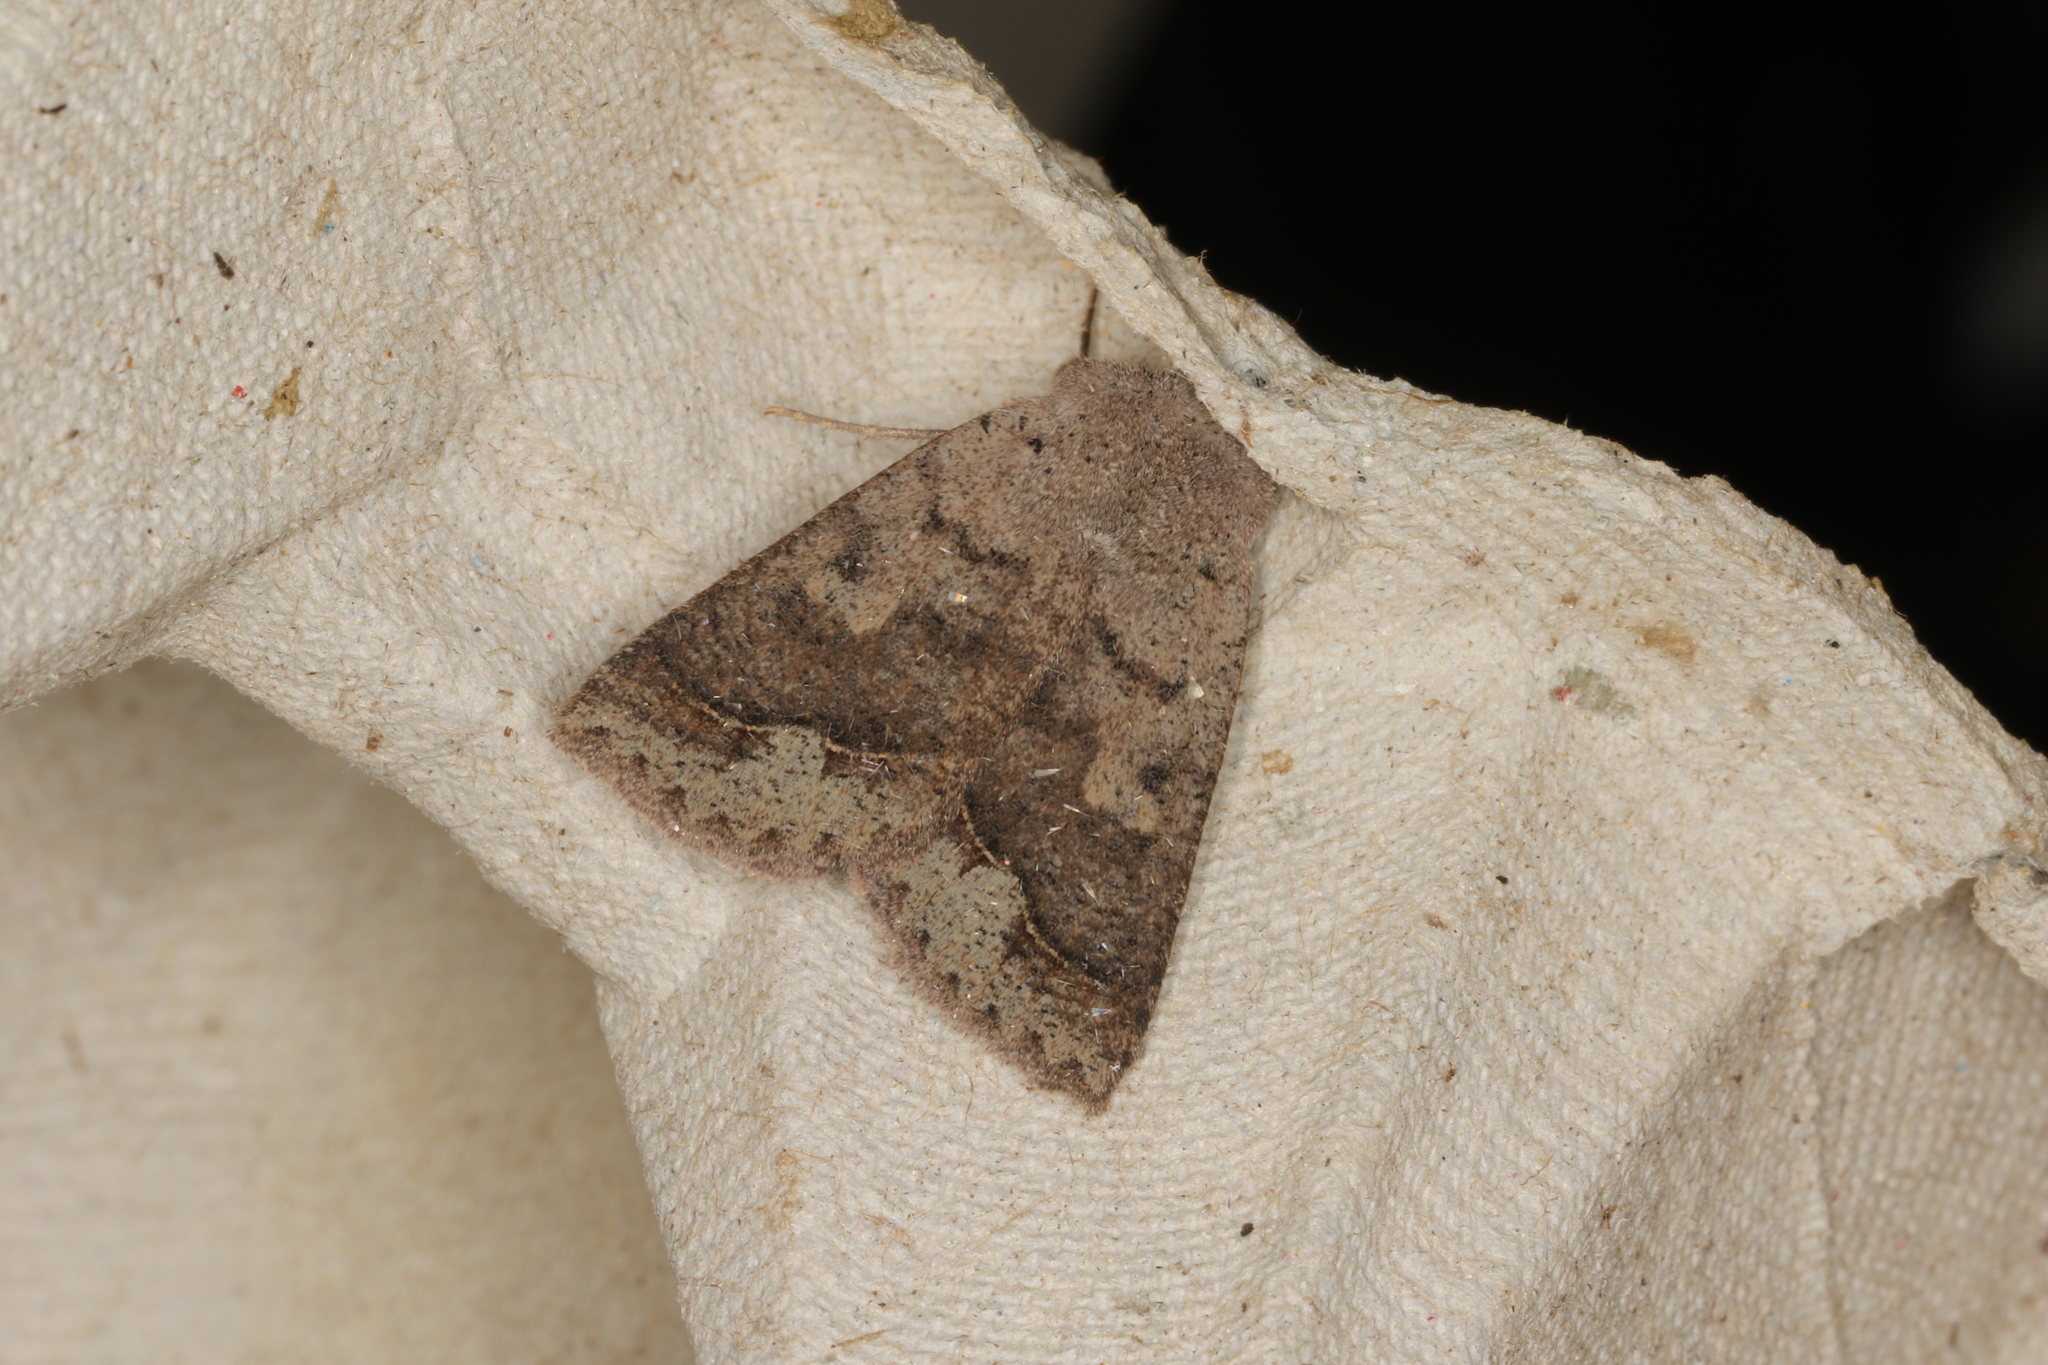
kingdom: Animalia
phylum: Arthropoda
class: Insecta
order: Lepidoptera
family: Erebidae
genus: Pantydia
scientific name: Pantydia sparsa
